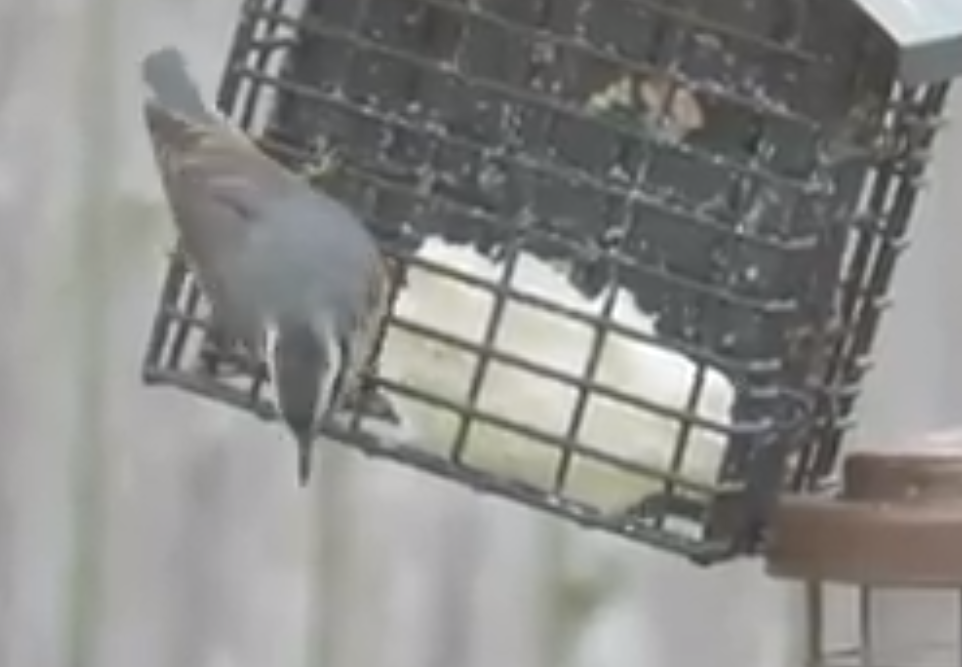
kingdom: Animalia
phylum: Chordata
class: Aves
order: Passeriformes
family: Sittidae
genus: Sitta
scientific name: Sitta canadensis
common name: Red-breasted nuthatch
